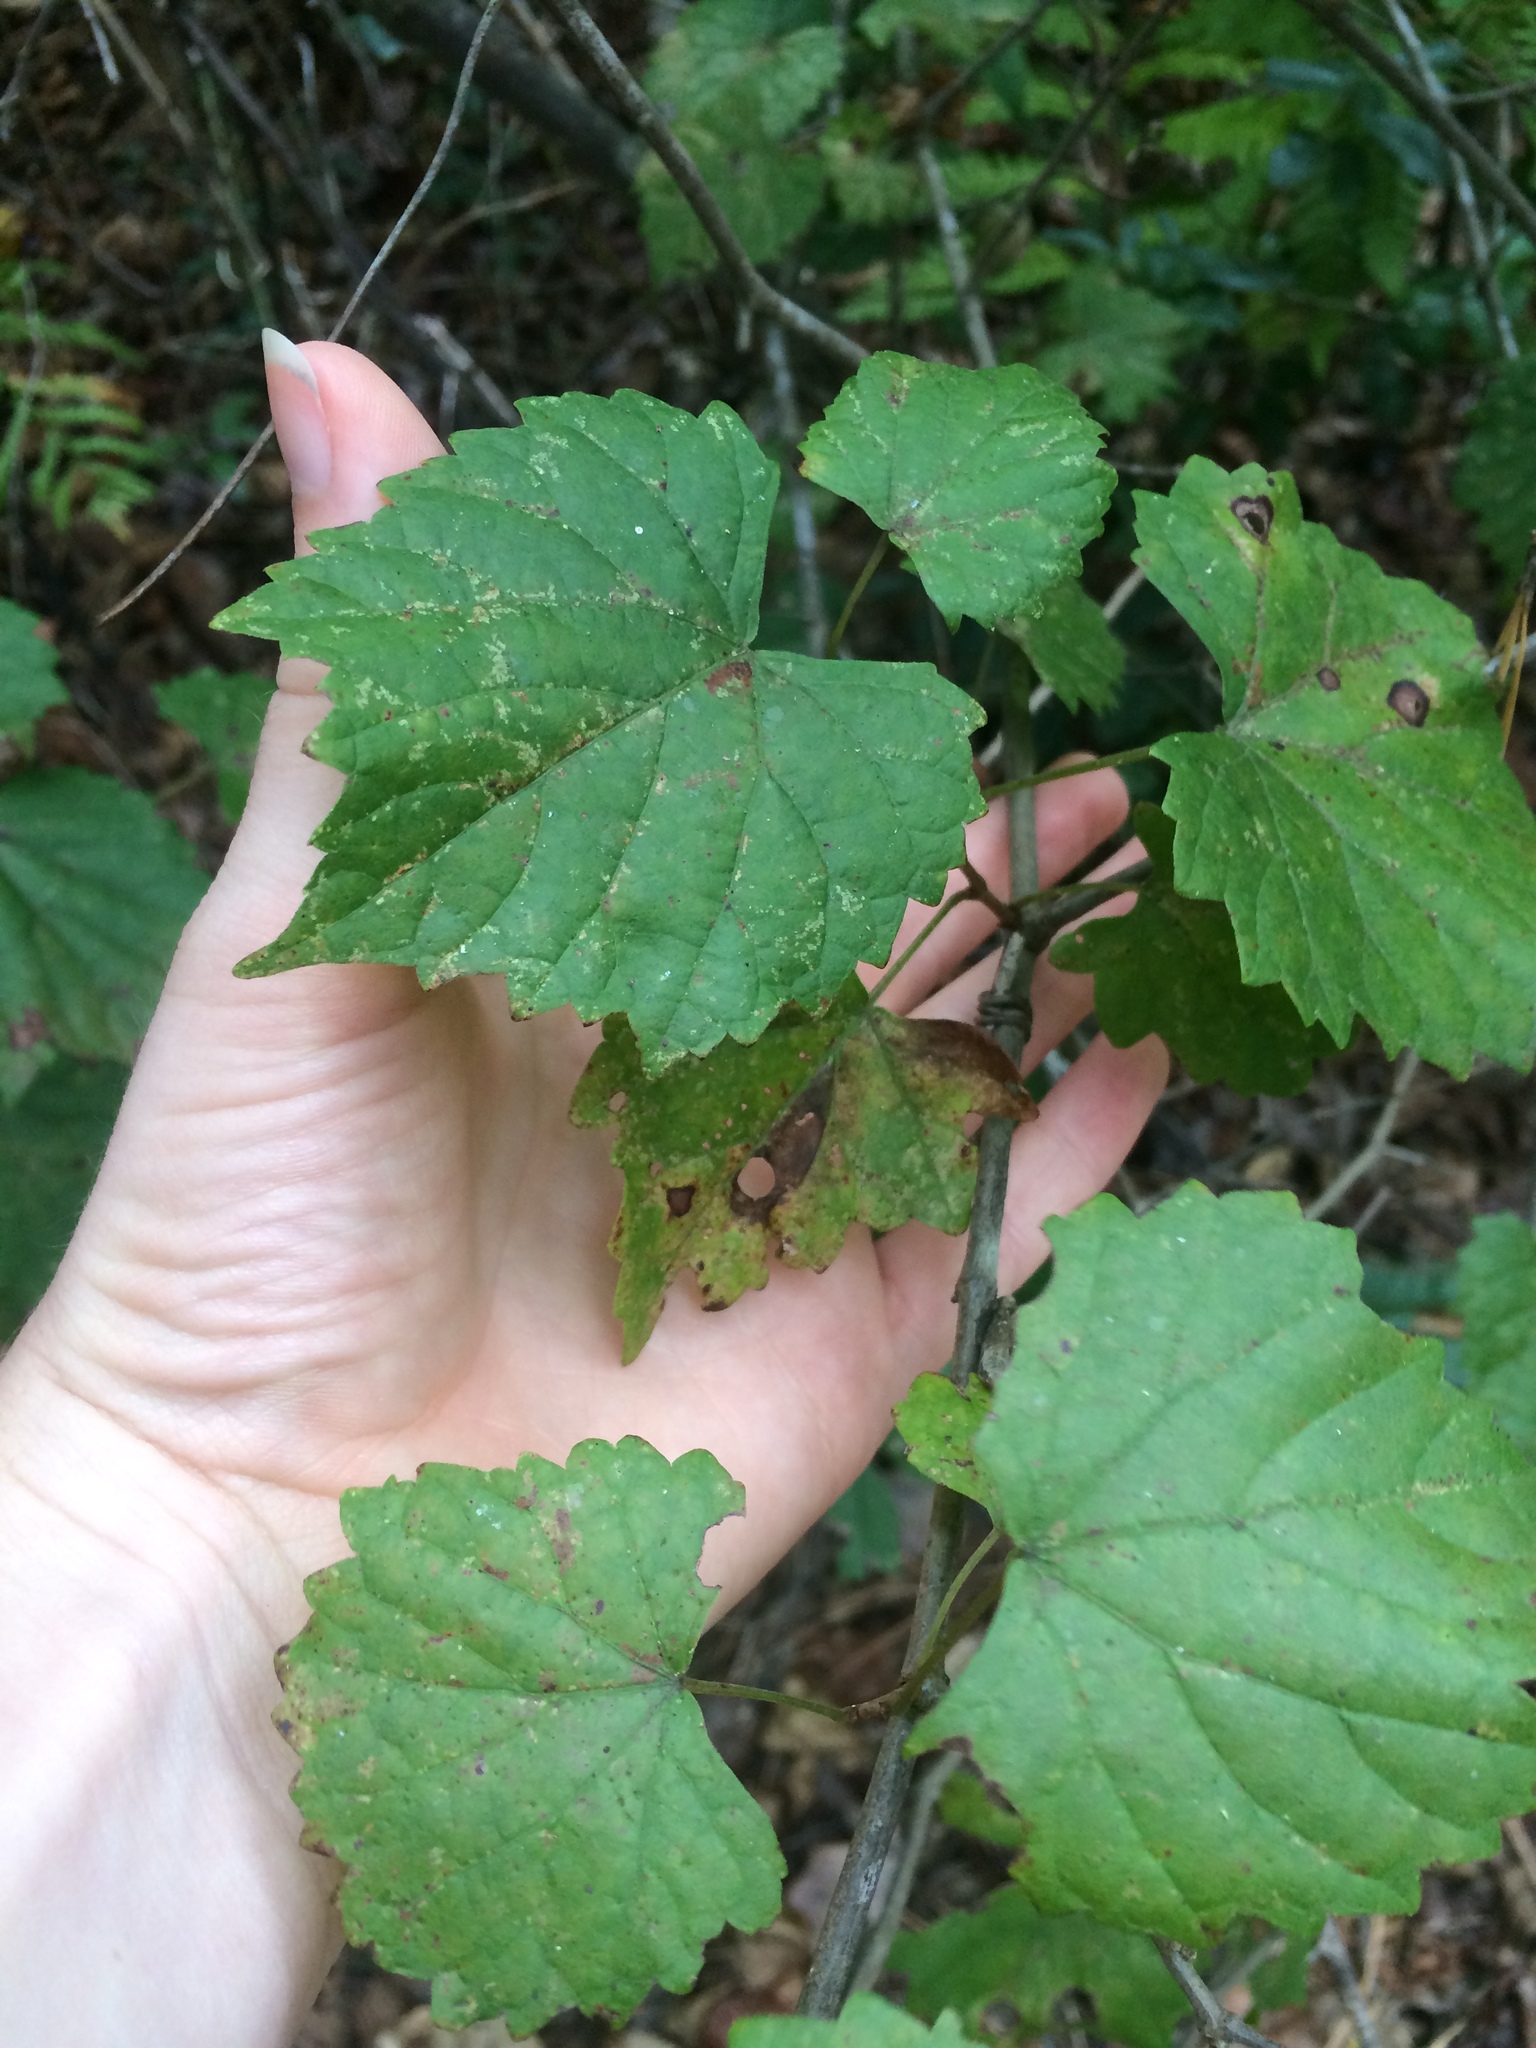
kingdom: Plantae
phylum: Tracheophyta
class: Magnoliopsida
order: Vitales
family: Vitaceae
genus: Vitis
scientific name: Vitis rotundifolia
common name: Muscadine grape
